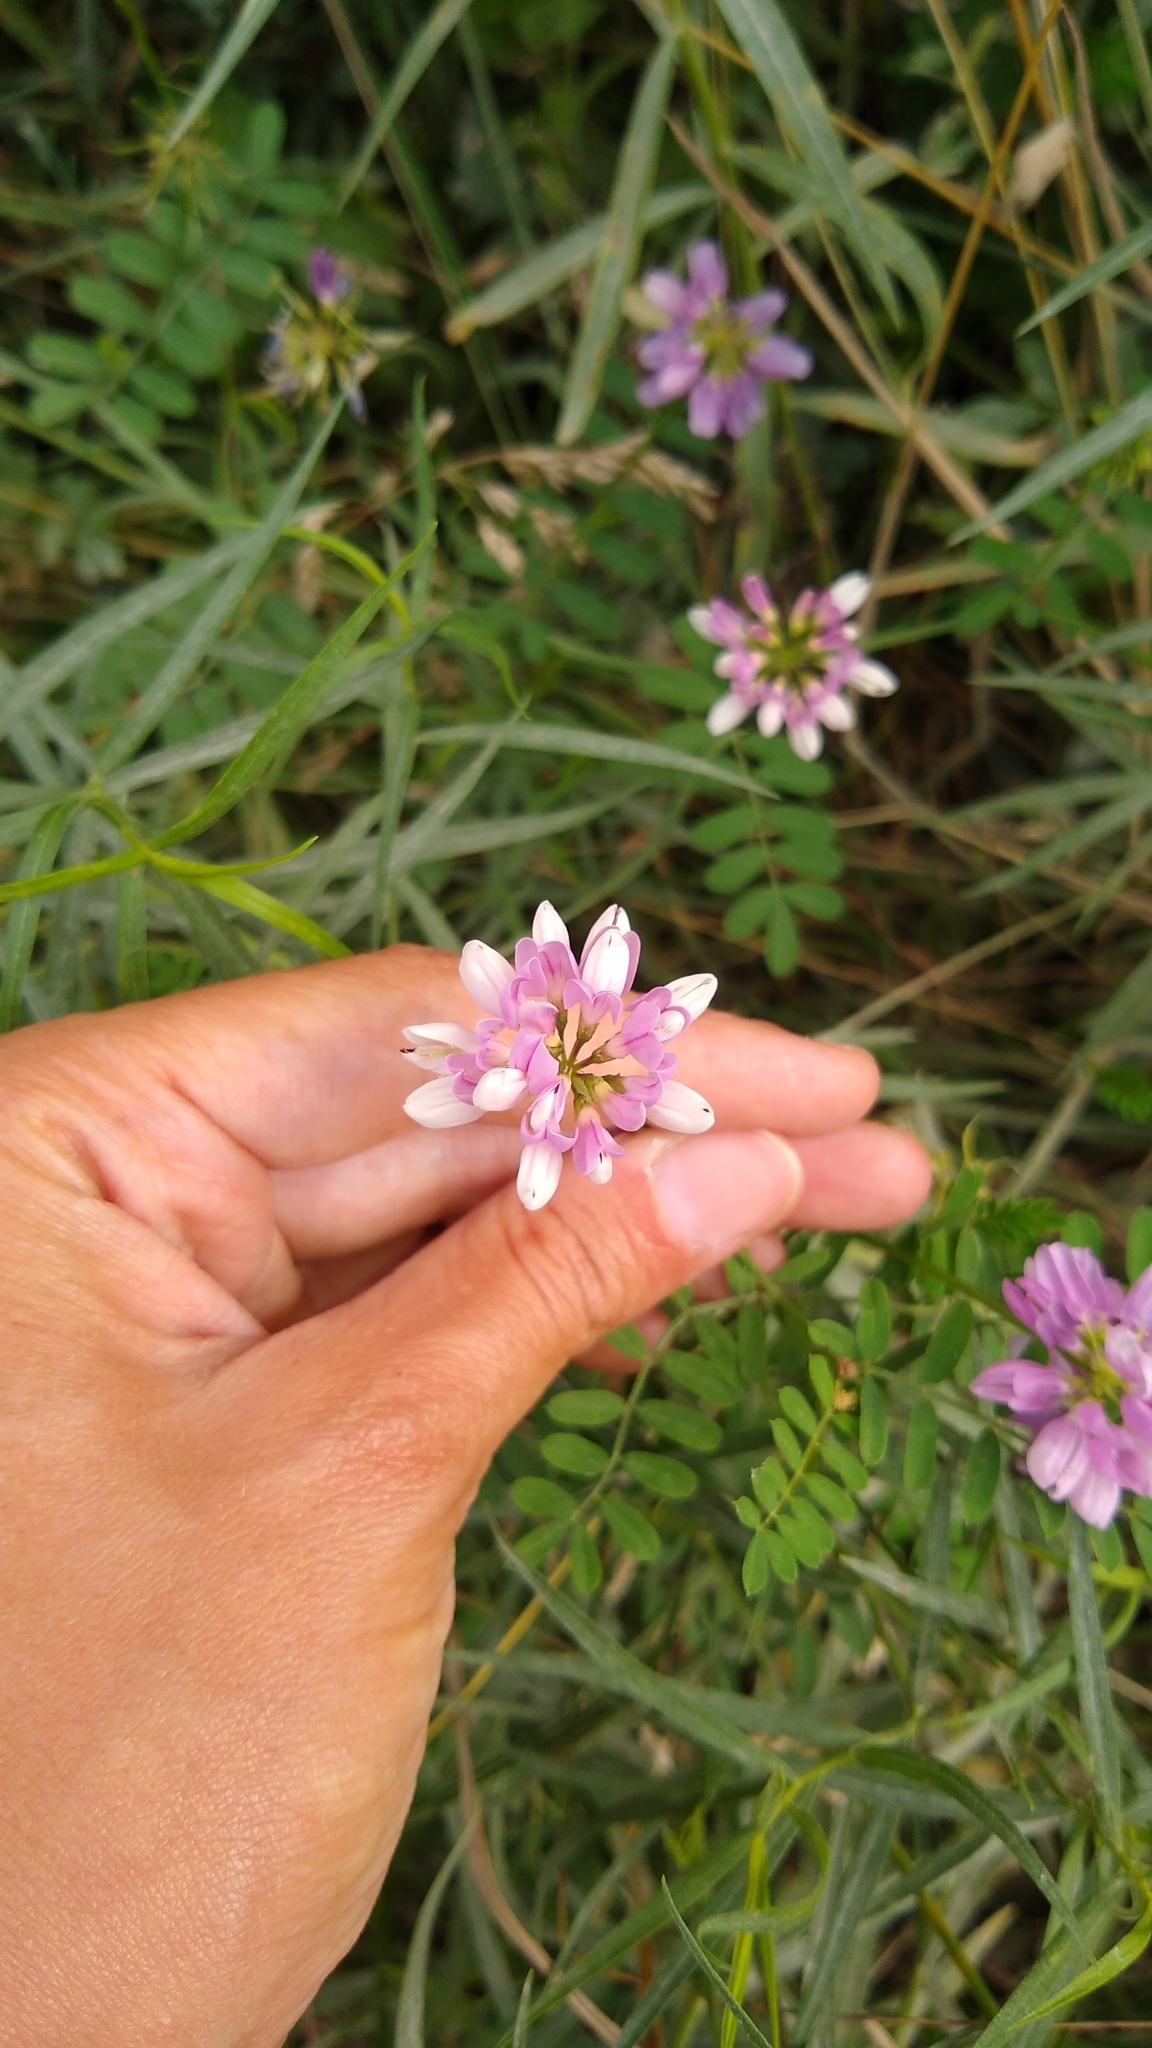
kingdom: Plantae
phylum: Tracheophyta
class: Magnoliopsida
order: Fabales
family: Fabaceae
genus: Coronilla
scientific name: Coronilla varia
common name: Crownvetch
